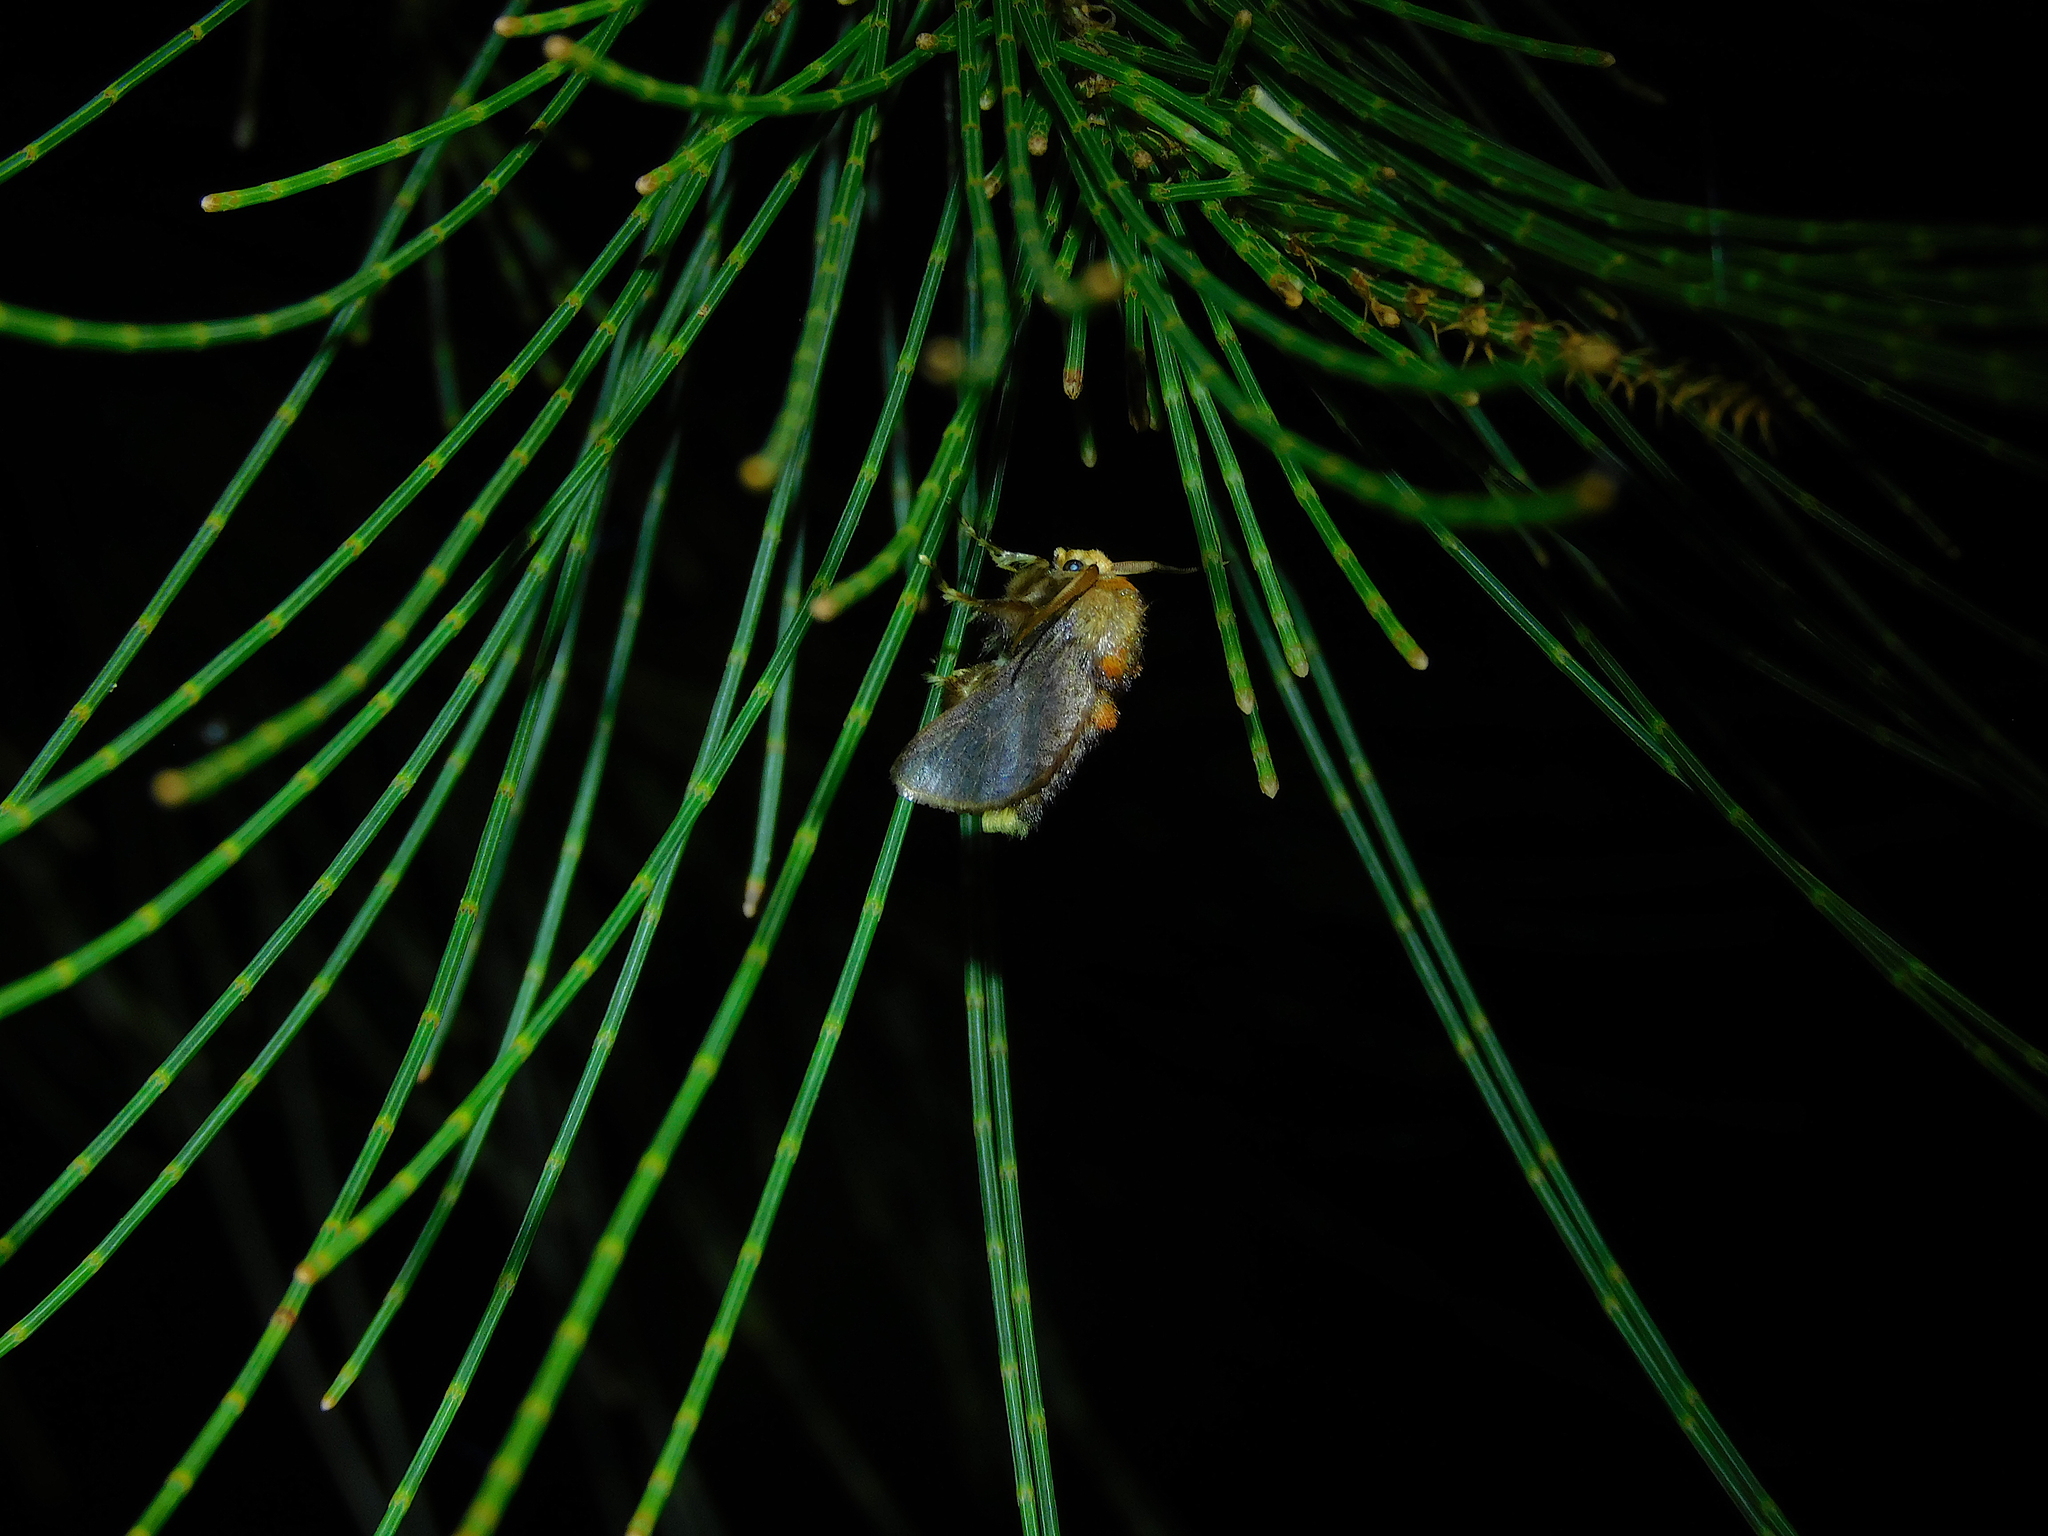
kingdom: Animalia
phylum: Arthropoda
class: Insecta
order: Lepidoptera
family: Limacodidae
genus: Doratifera
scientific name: Doratifera oxleyi
